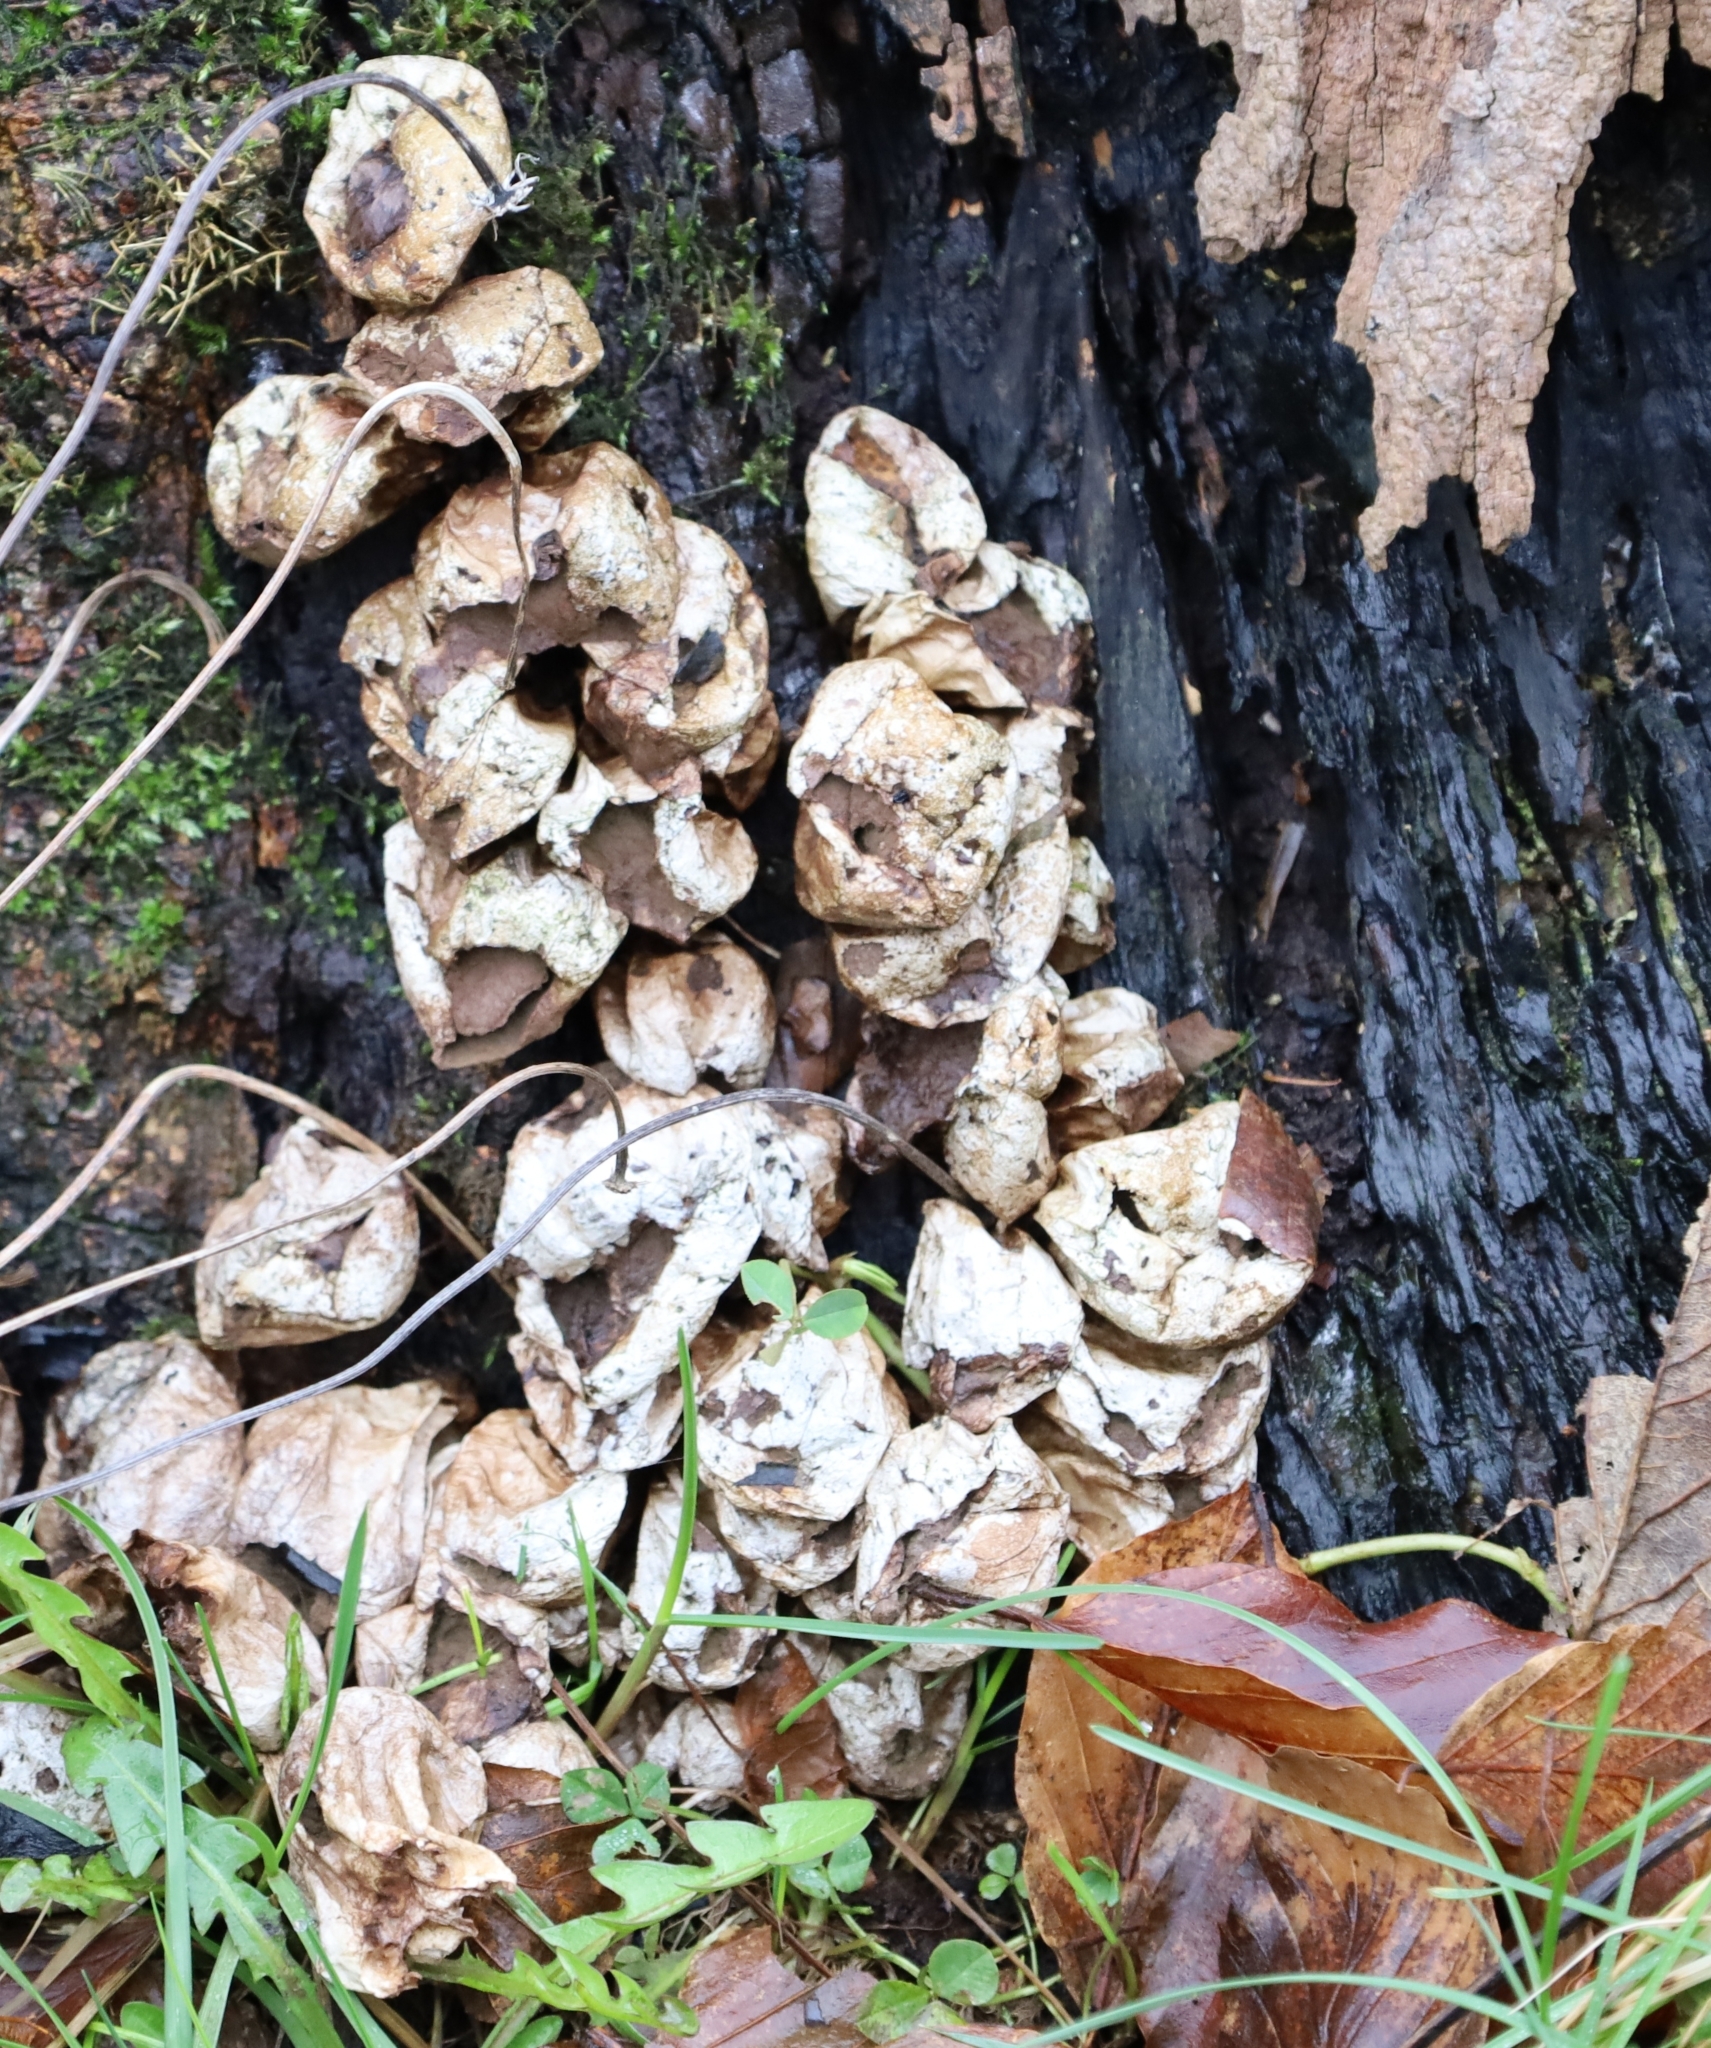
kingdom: Fungi
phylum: Basidiomycota
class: Agaricomycetes
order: Agaricales
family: Lycoperdaceae
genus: Apioperdon
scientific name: Apioperdon pyriforme
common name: Pear-shaped puffball
